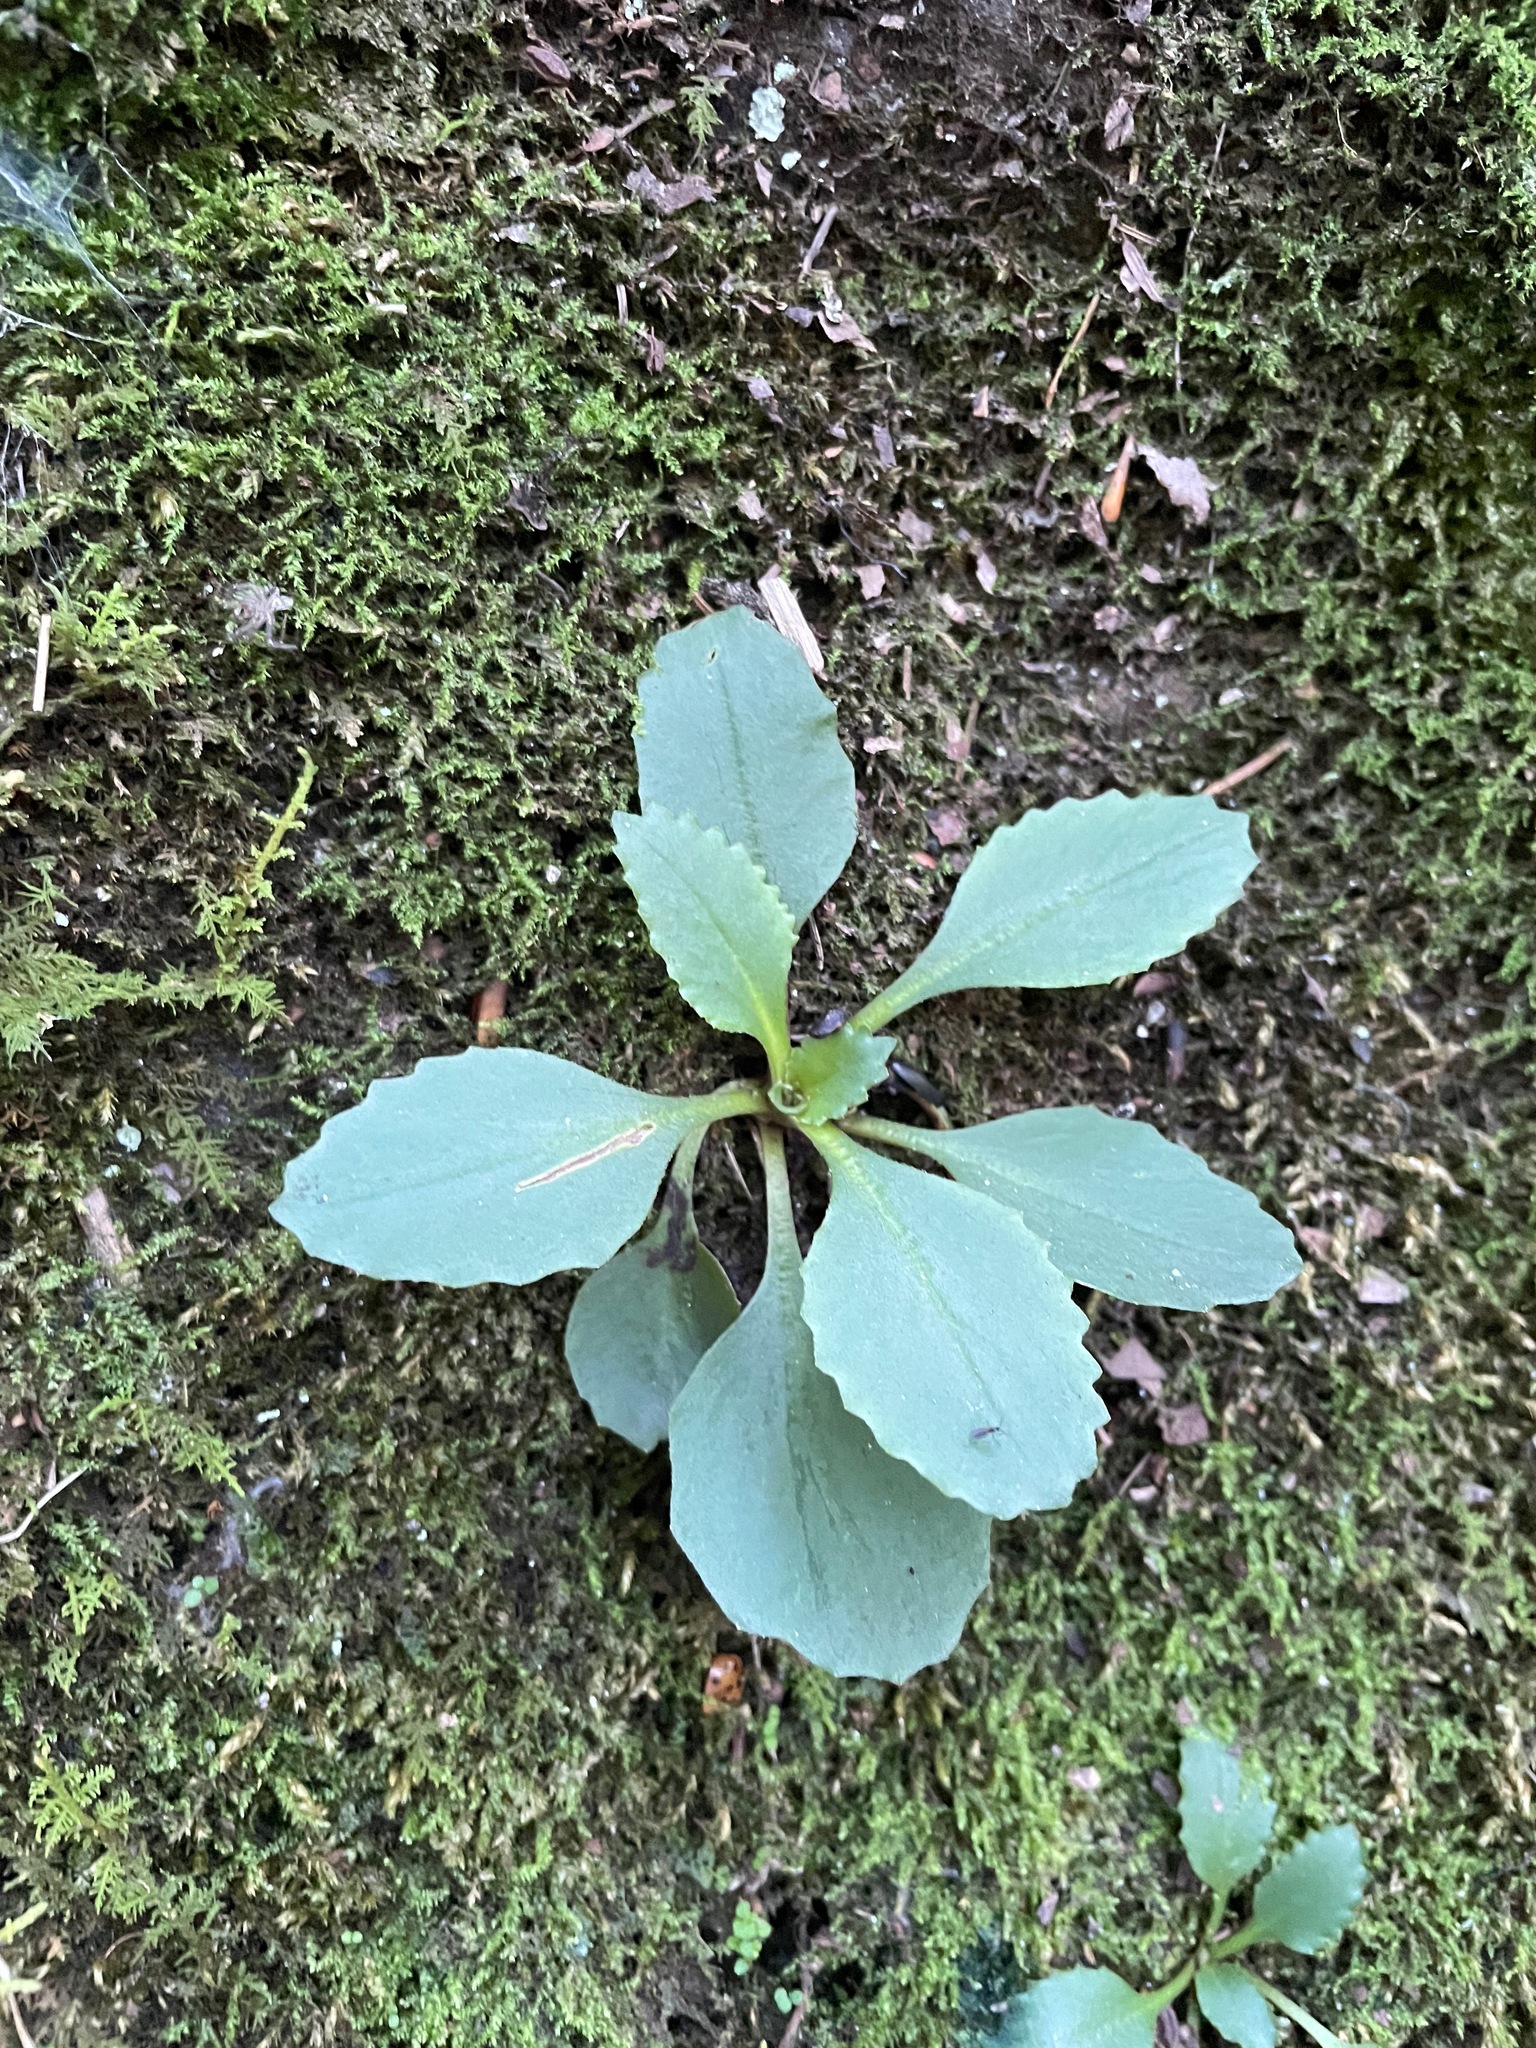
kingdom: Plantae
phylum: Tracheophyta
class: Magnoliopsida
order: Saxifragales
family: Saxifragaceae
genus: Micranthes
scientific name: Micranthes virginiensis
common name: Early saxifrage
